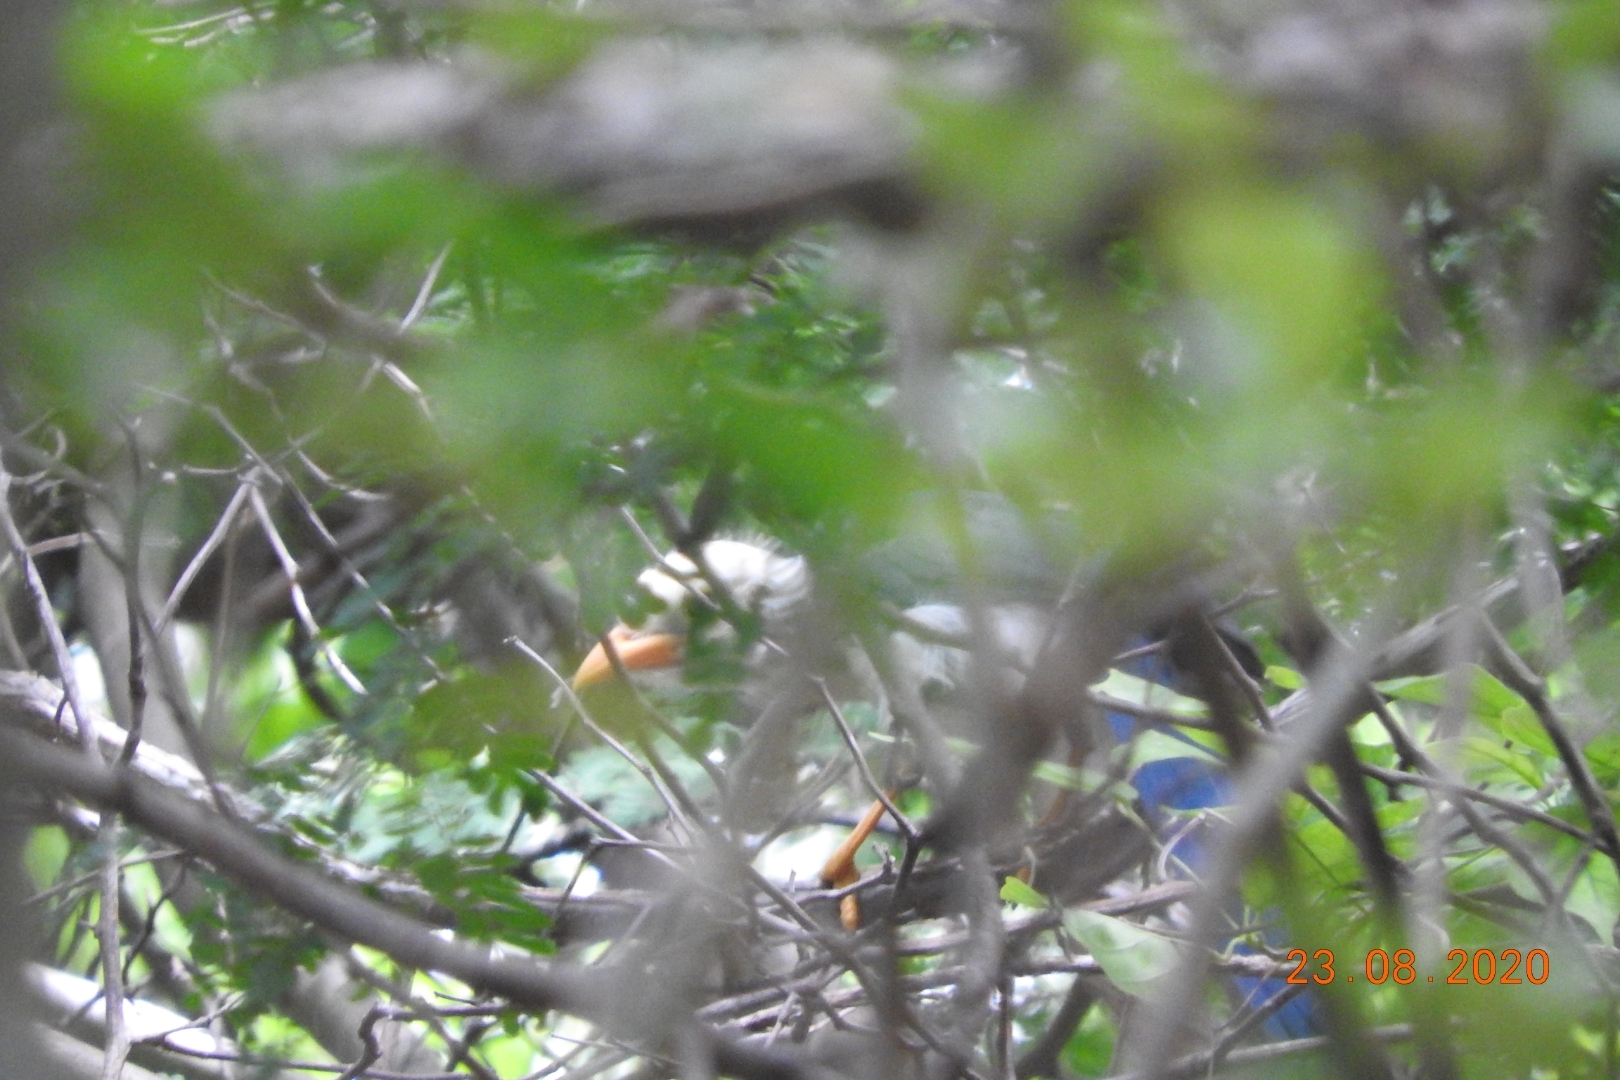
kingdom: Animalia
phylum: Chordata
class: Aves
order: Passeriformes
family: Corvidae
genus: Cyanocorax
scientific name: Cyanocorax yucatanicus
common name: Yucatan jay
